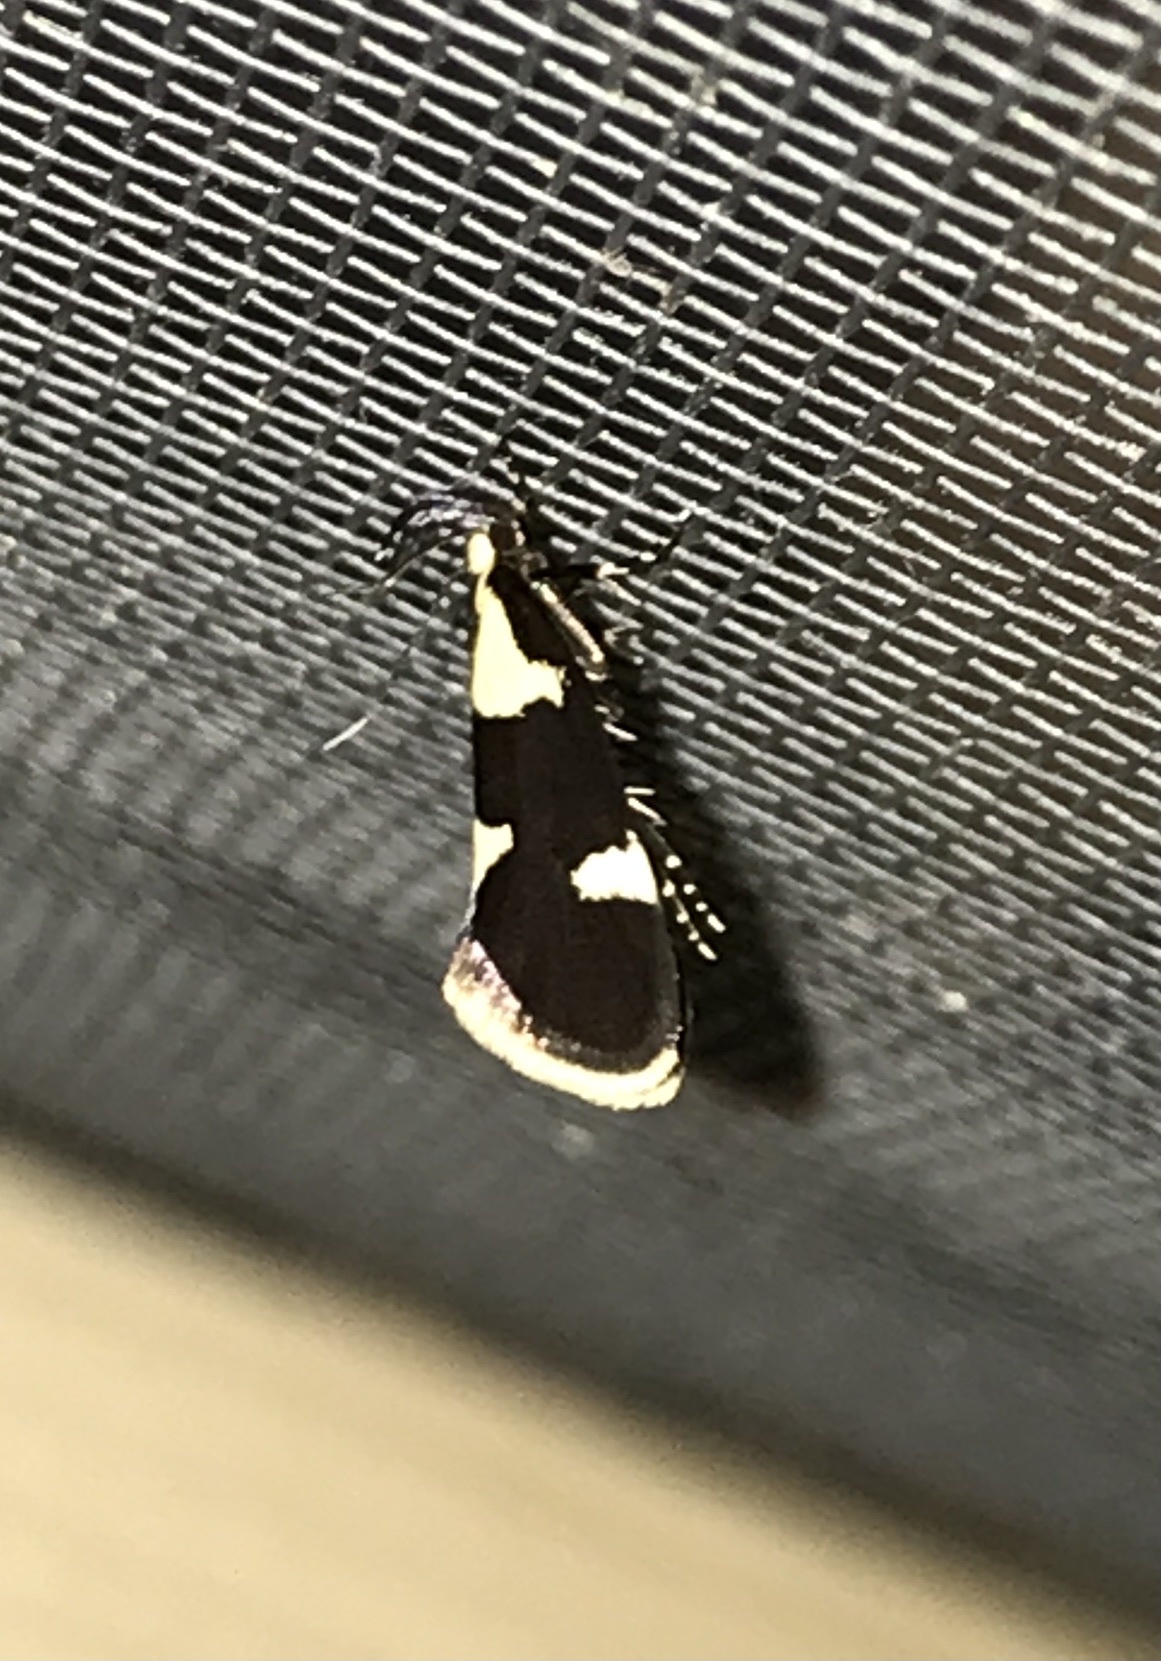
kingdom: Animalia
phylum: Arthropoda
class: Insecta
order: Lepidoptera
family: Oecophoridae
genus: Oecophora
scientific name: Oecophora superior
